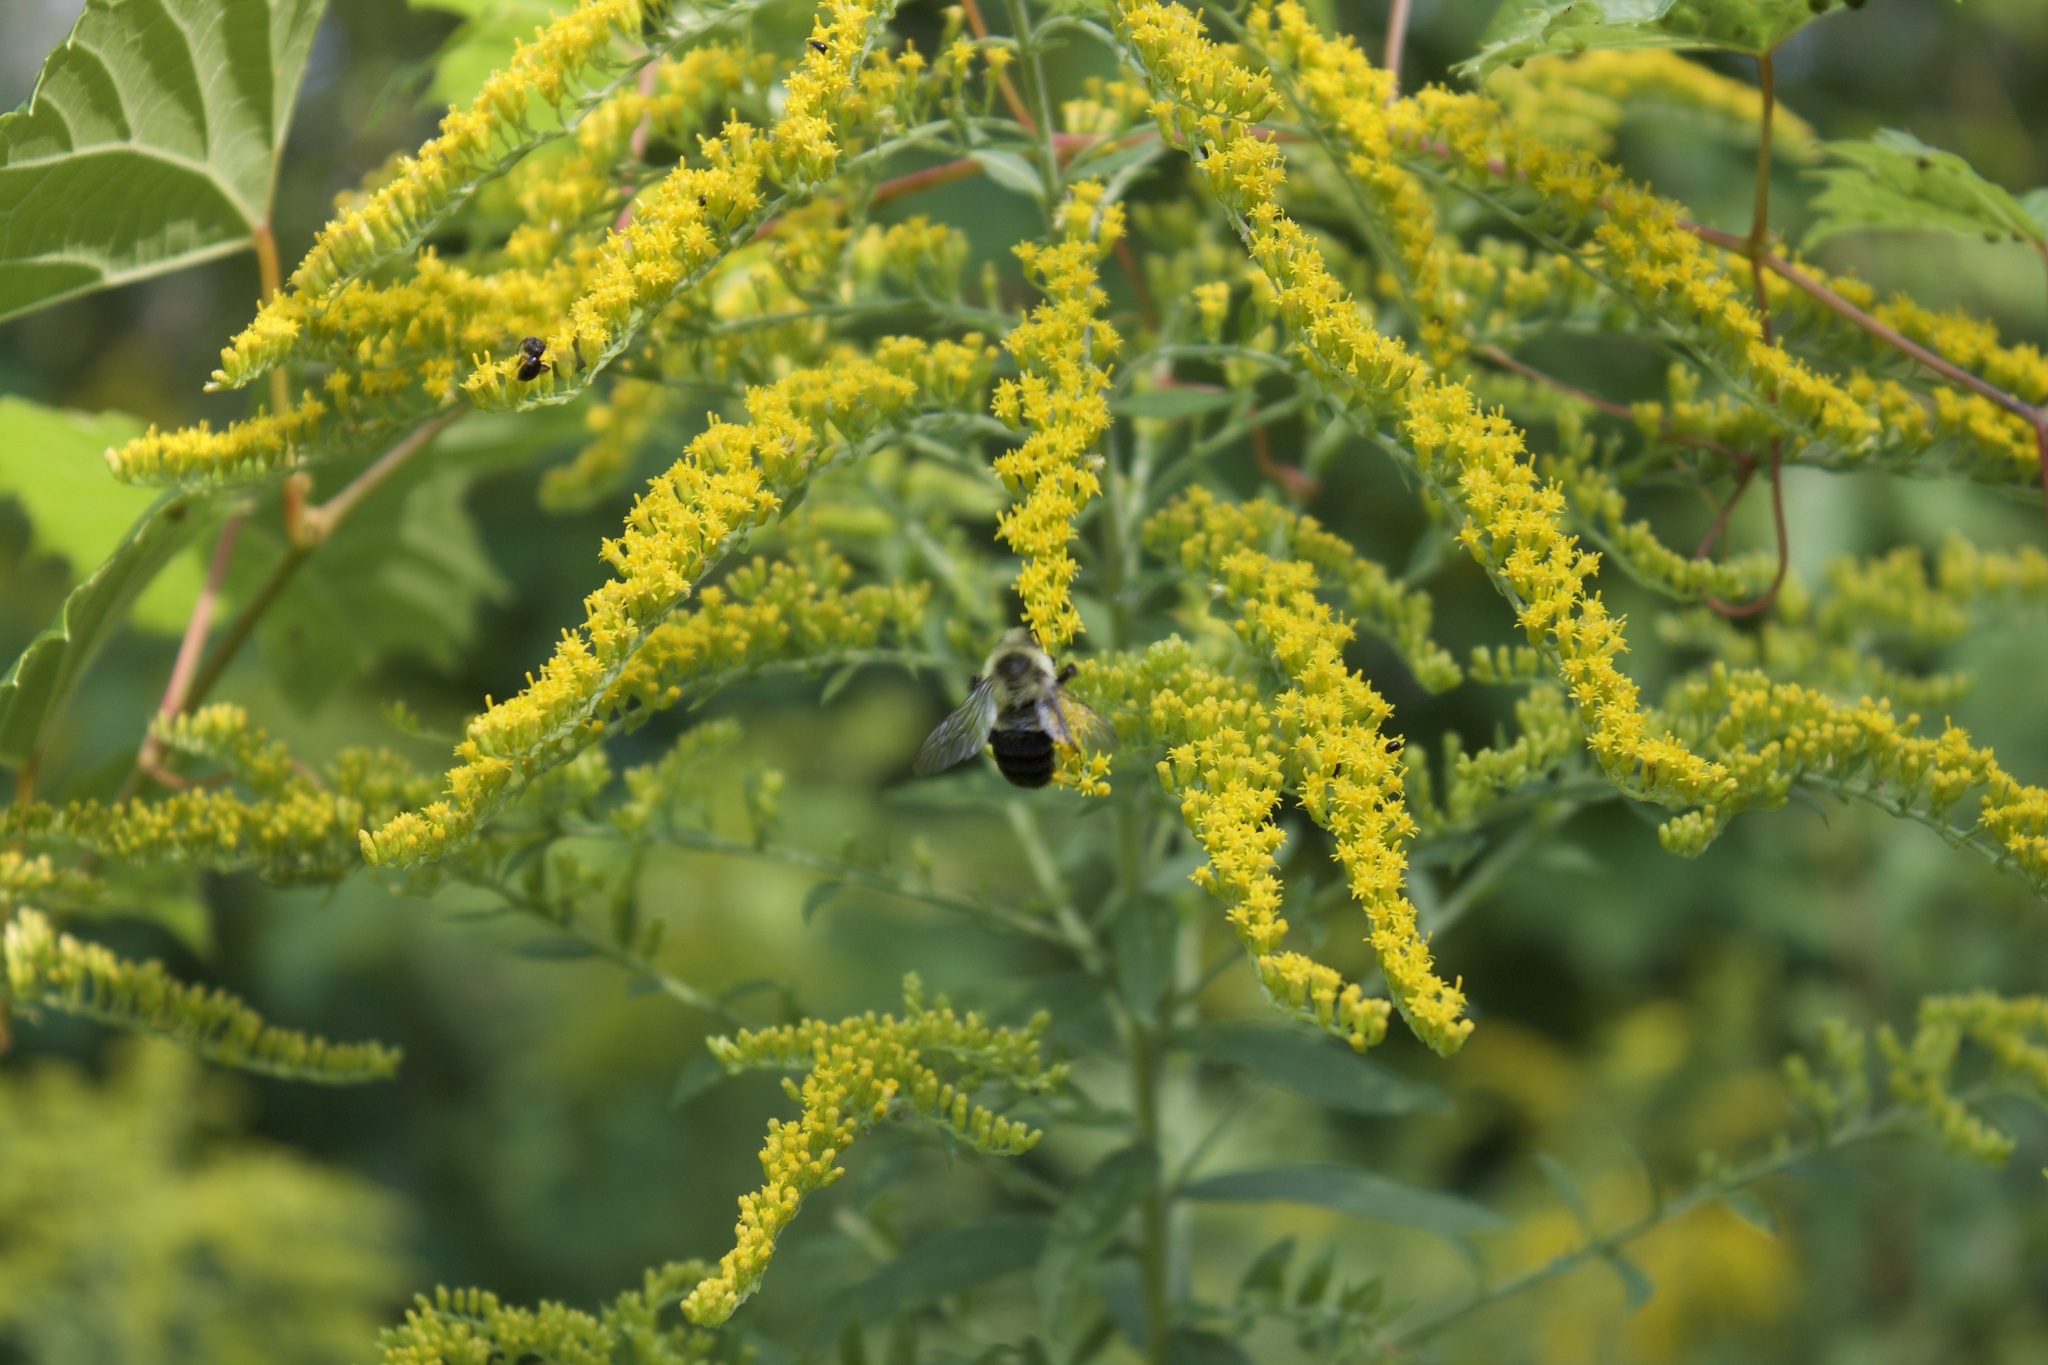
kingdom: Animalia
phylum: Arthropoda
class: Insecta
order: Hymenoptera
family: Apidae
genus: Bombus
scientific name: Bombus impatiens
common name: Common eastern bumble bee
